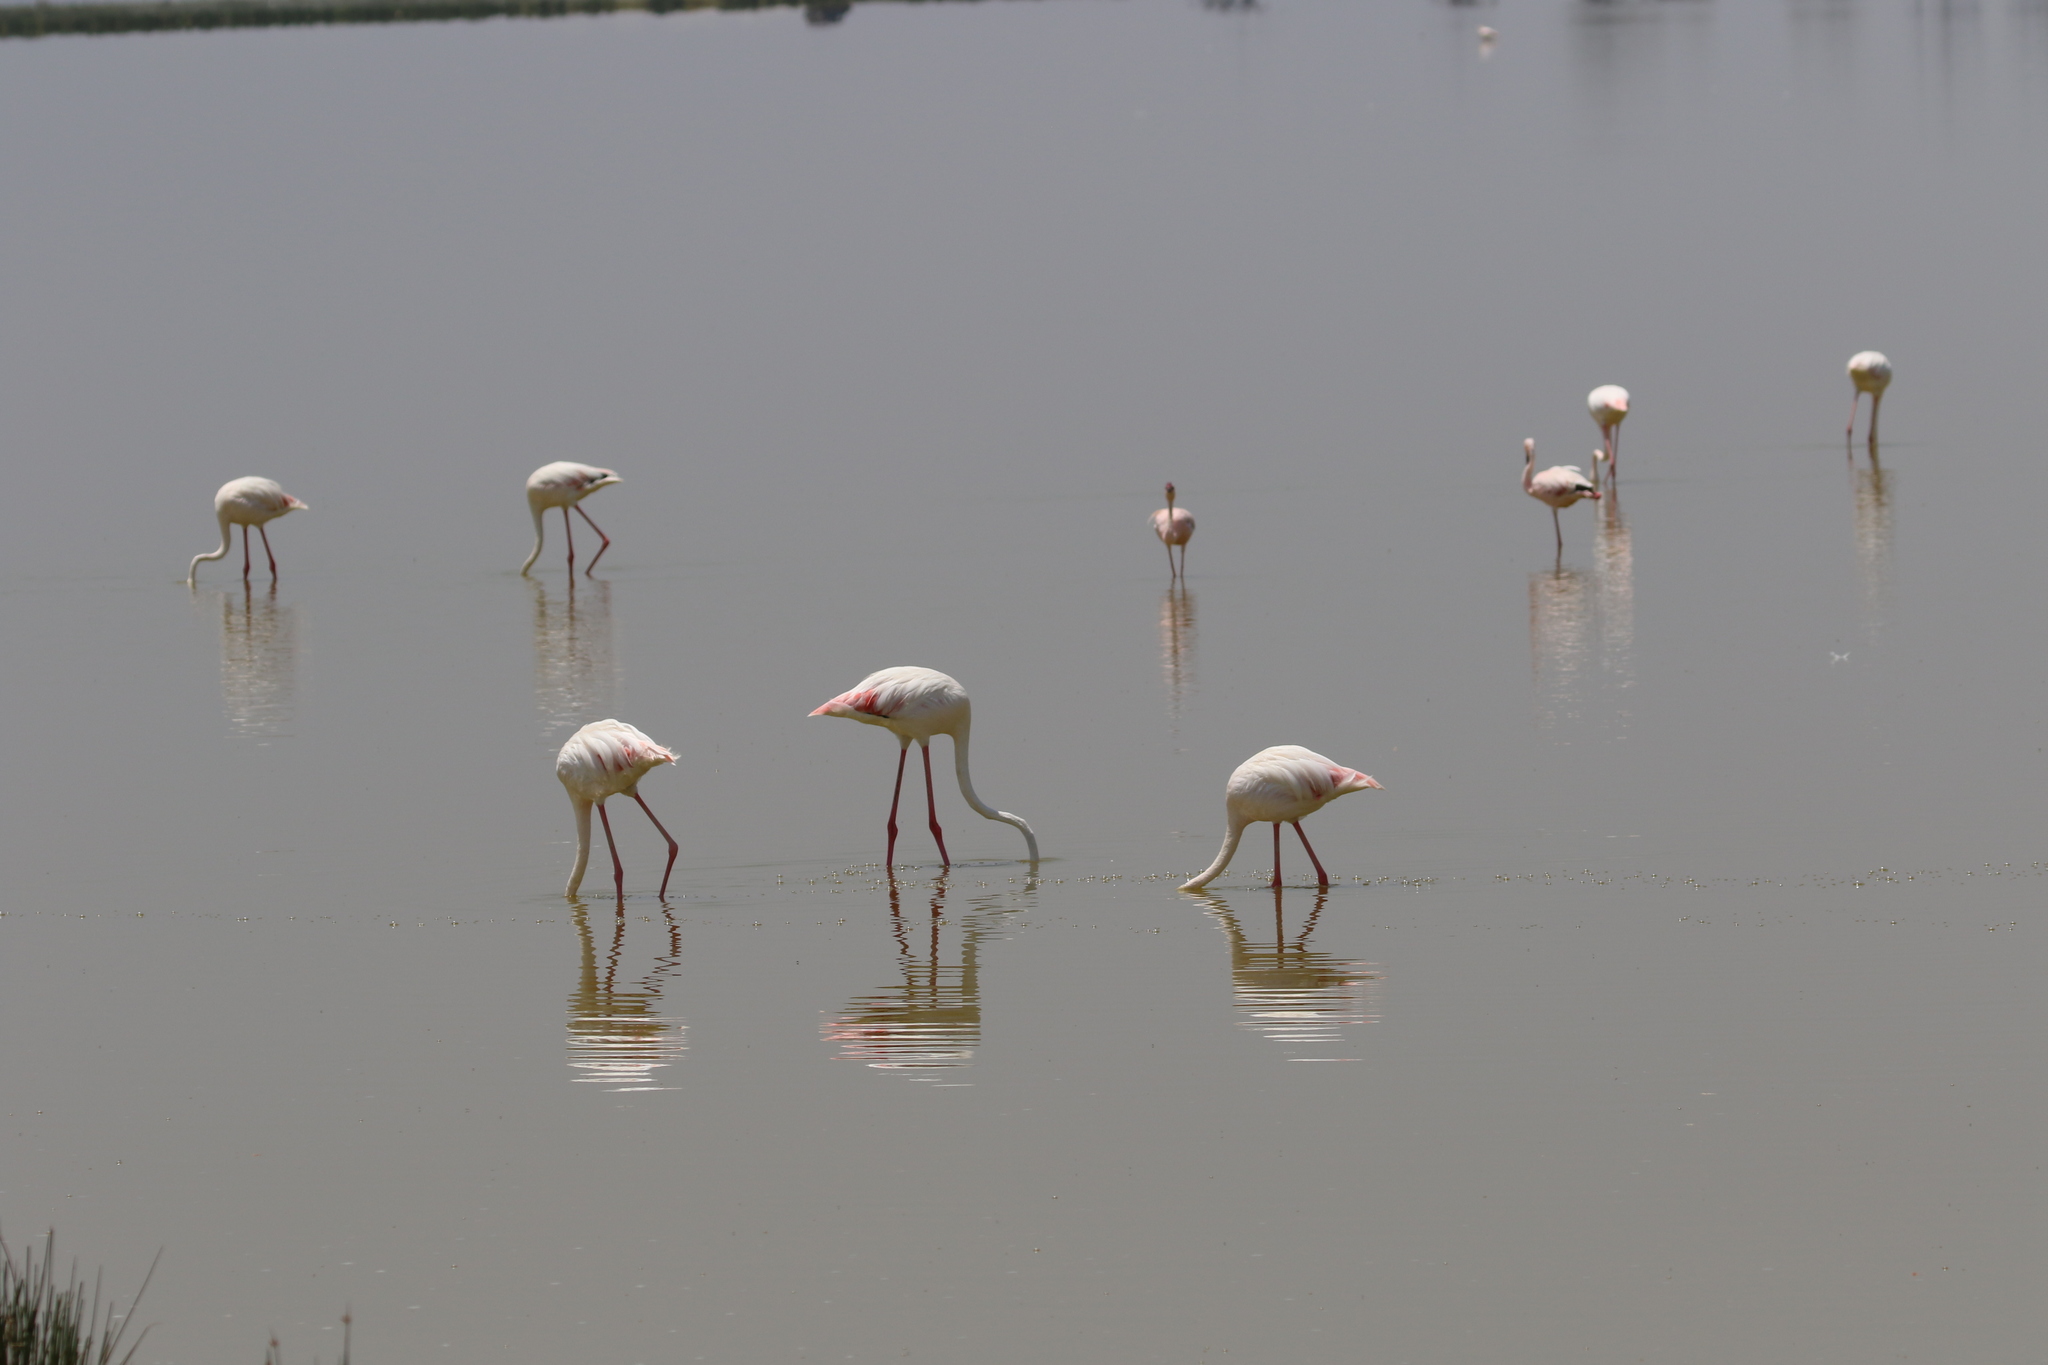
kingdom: Animalia
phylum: Chordata
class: Aves
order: Phoenicopteriformes
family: Phoenicopteridae
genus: Phoenicopterus
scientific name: Phoenicopterus roseus
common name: Greater flamingo
